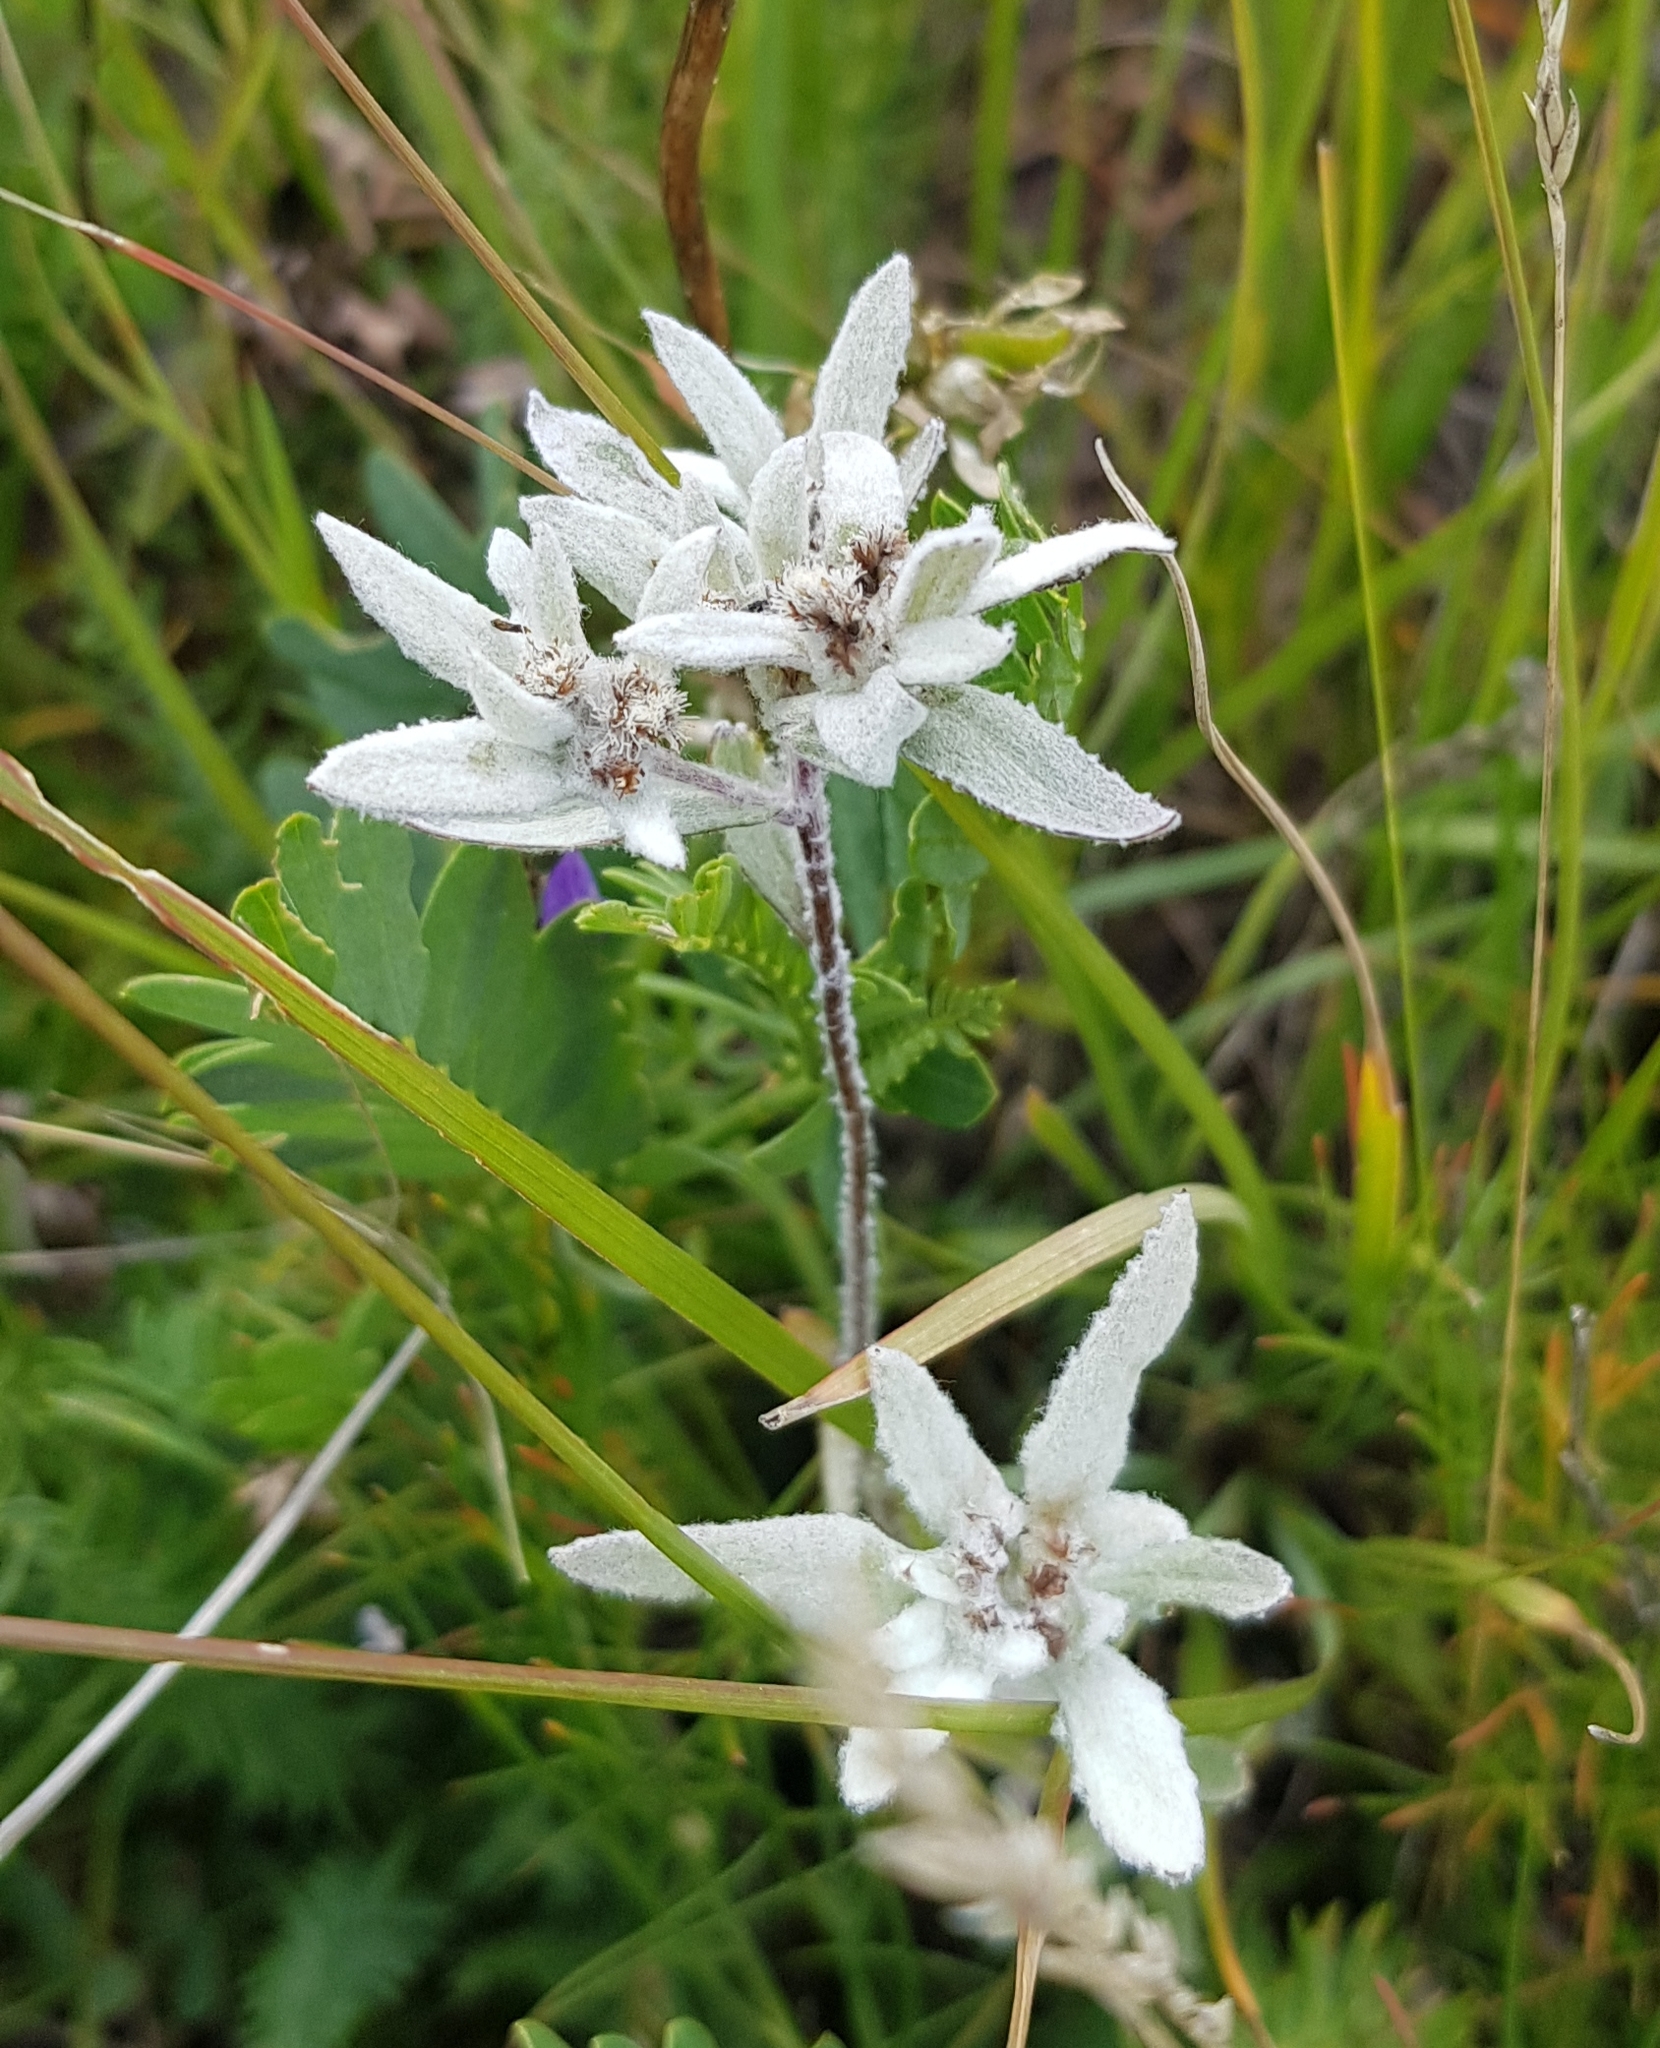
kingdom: Plantae
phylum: Tracheophyta
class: Magnoliopsida
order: Asterales
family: Asteraceae
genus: Leontopodium
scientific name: Leontopodium conglobatum
